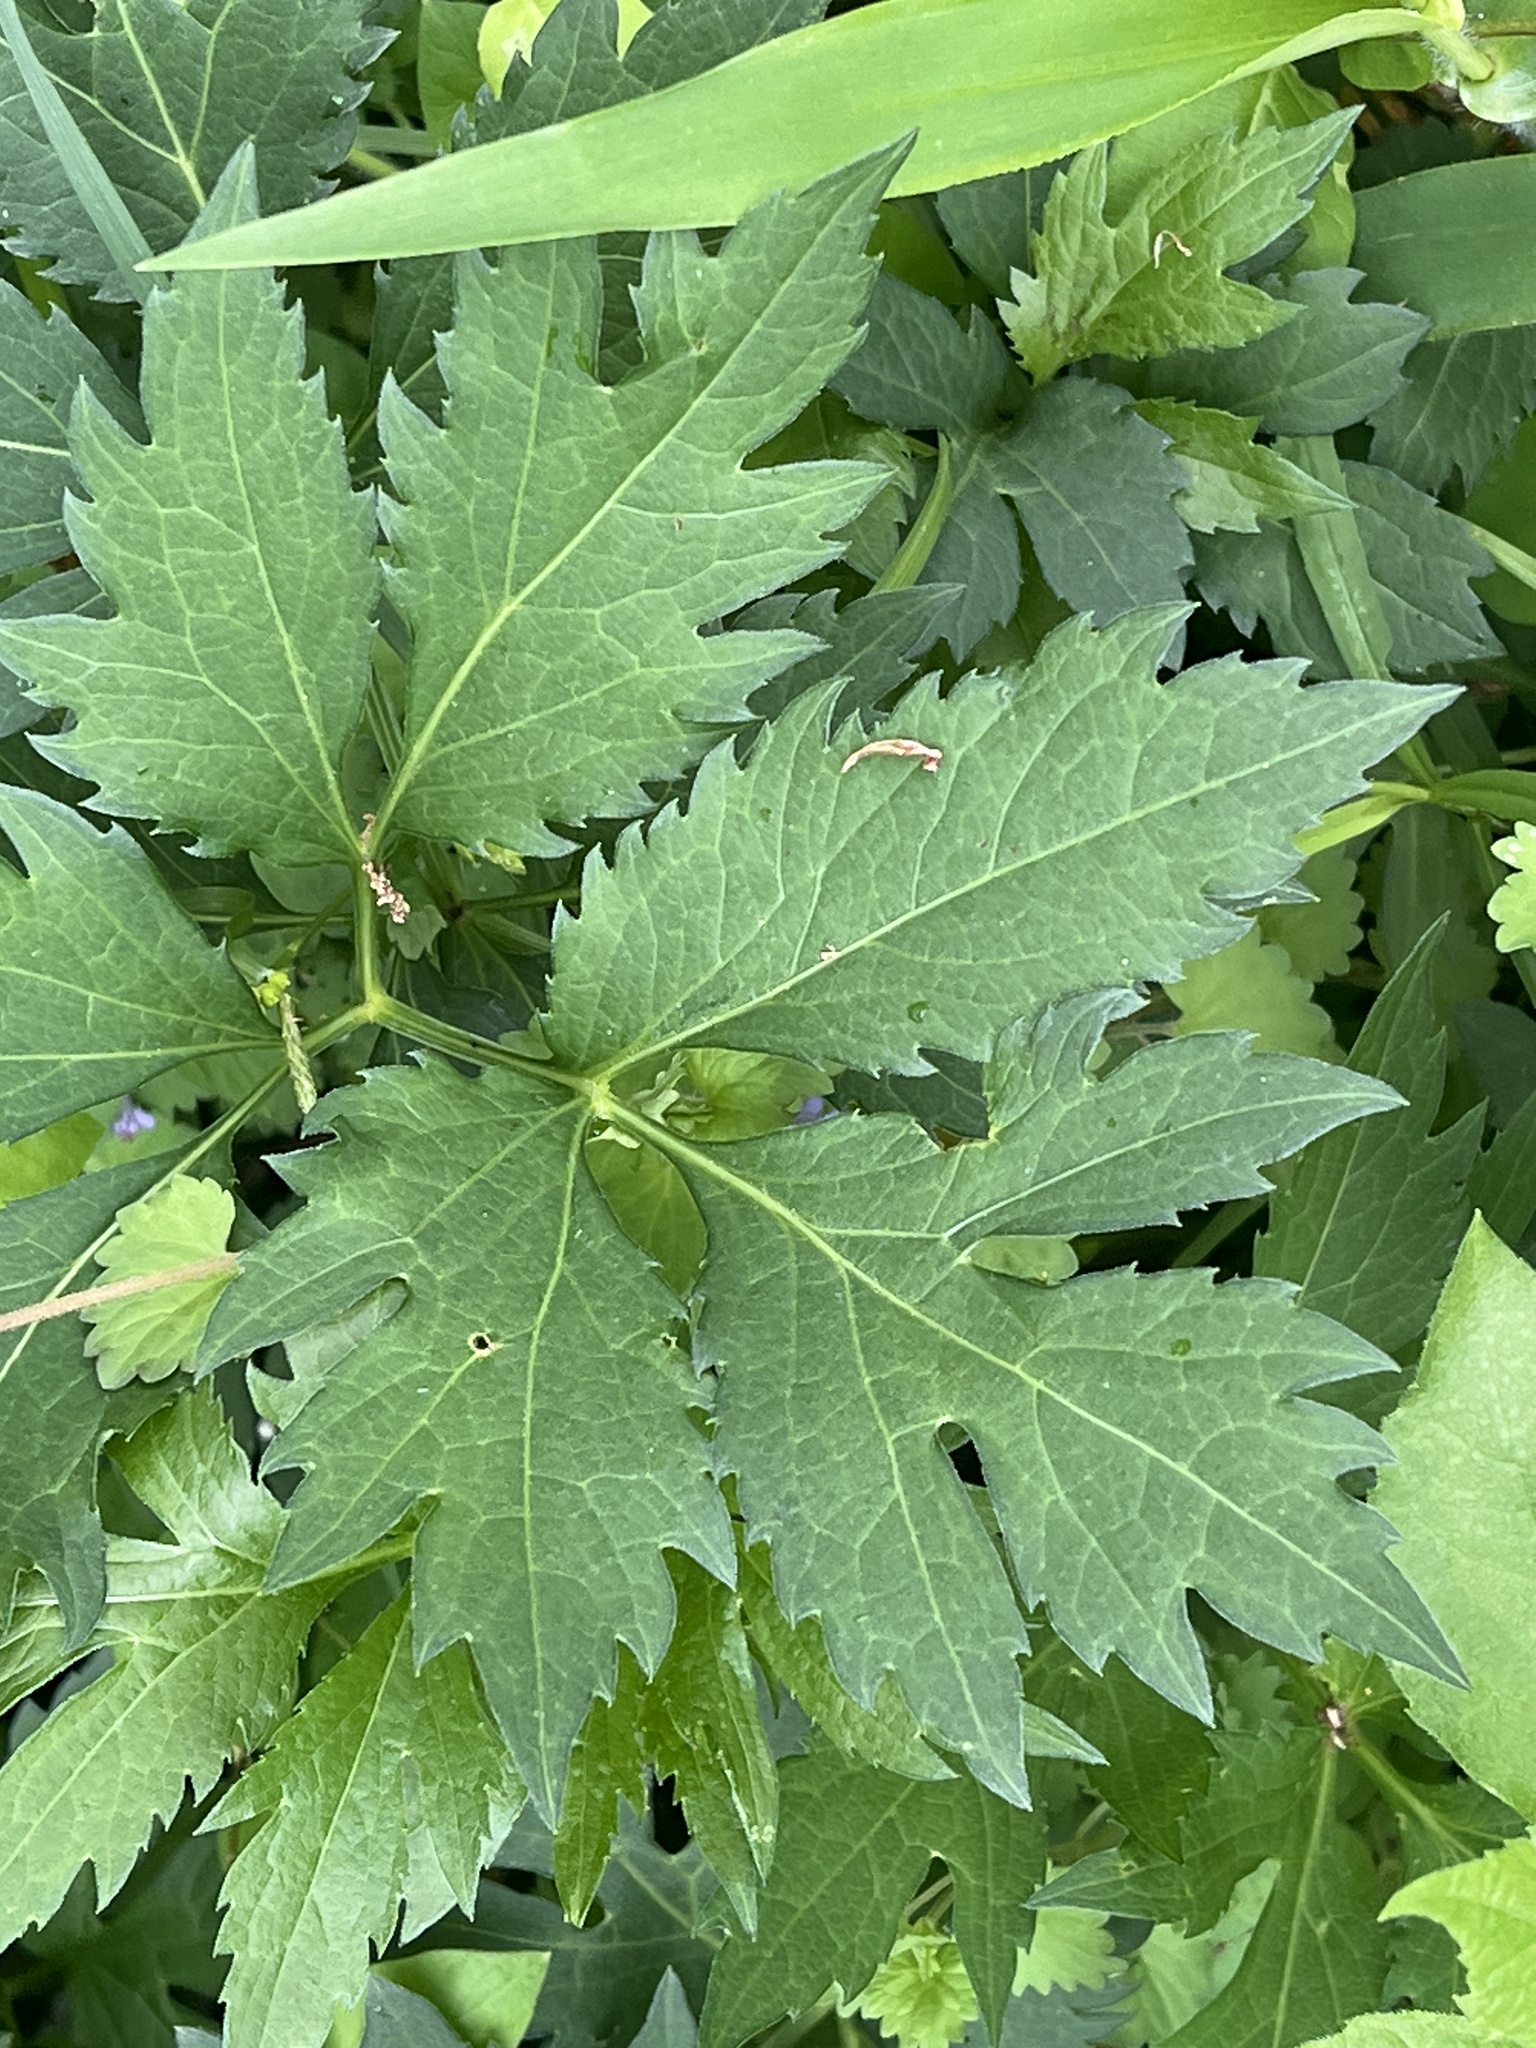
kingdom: Plantae
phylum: Tracheophyta
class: Magnoliopsida
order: Asterales
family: Asteraceae
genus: Rudbeckia
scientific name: Rudbeckia laciniata
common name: Coneflower
